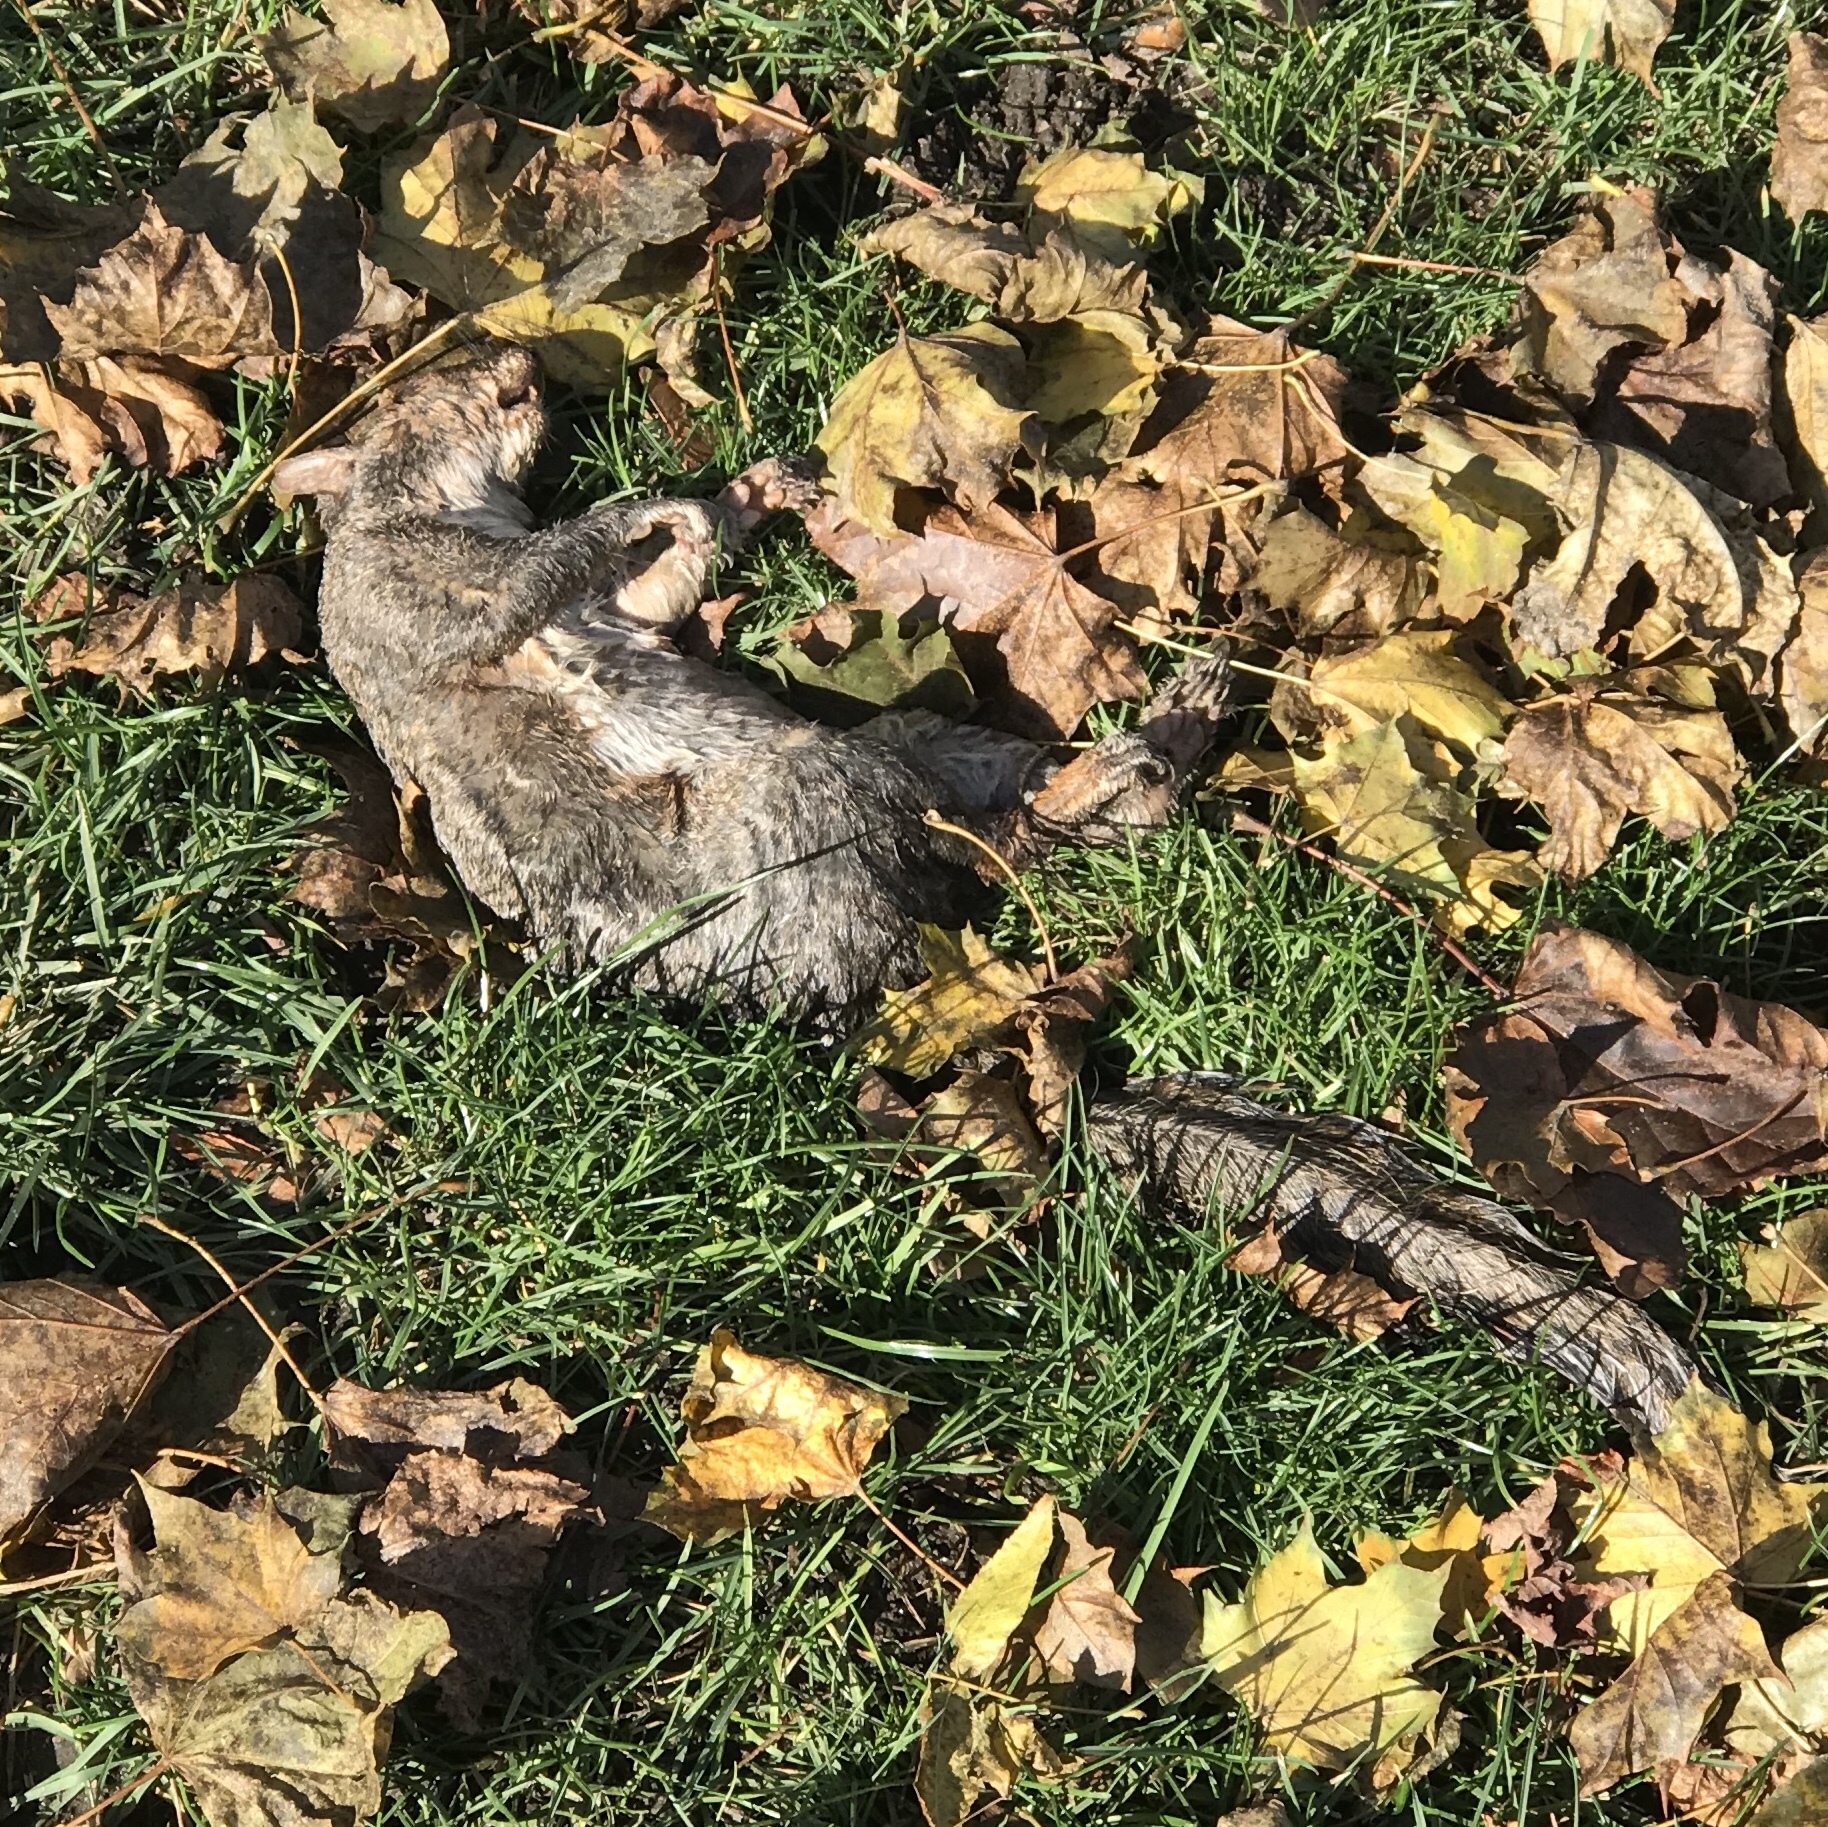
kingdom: Animalia
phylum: Chordata
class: Mammalia
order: Rodentia
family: Sciuridae
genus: Sciurus
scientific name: Sciurus carolinensis
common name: Eastern gray squirrel
